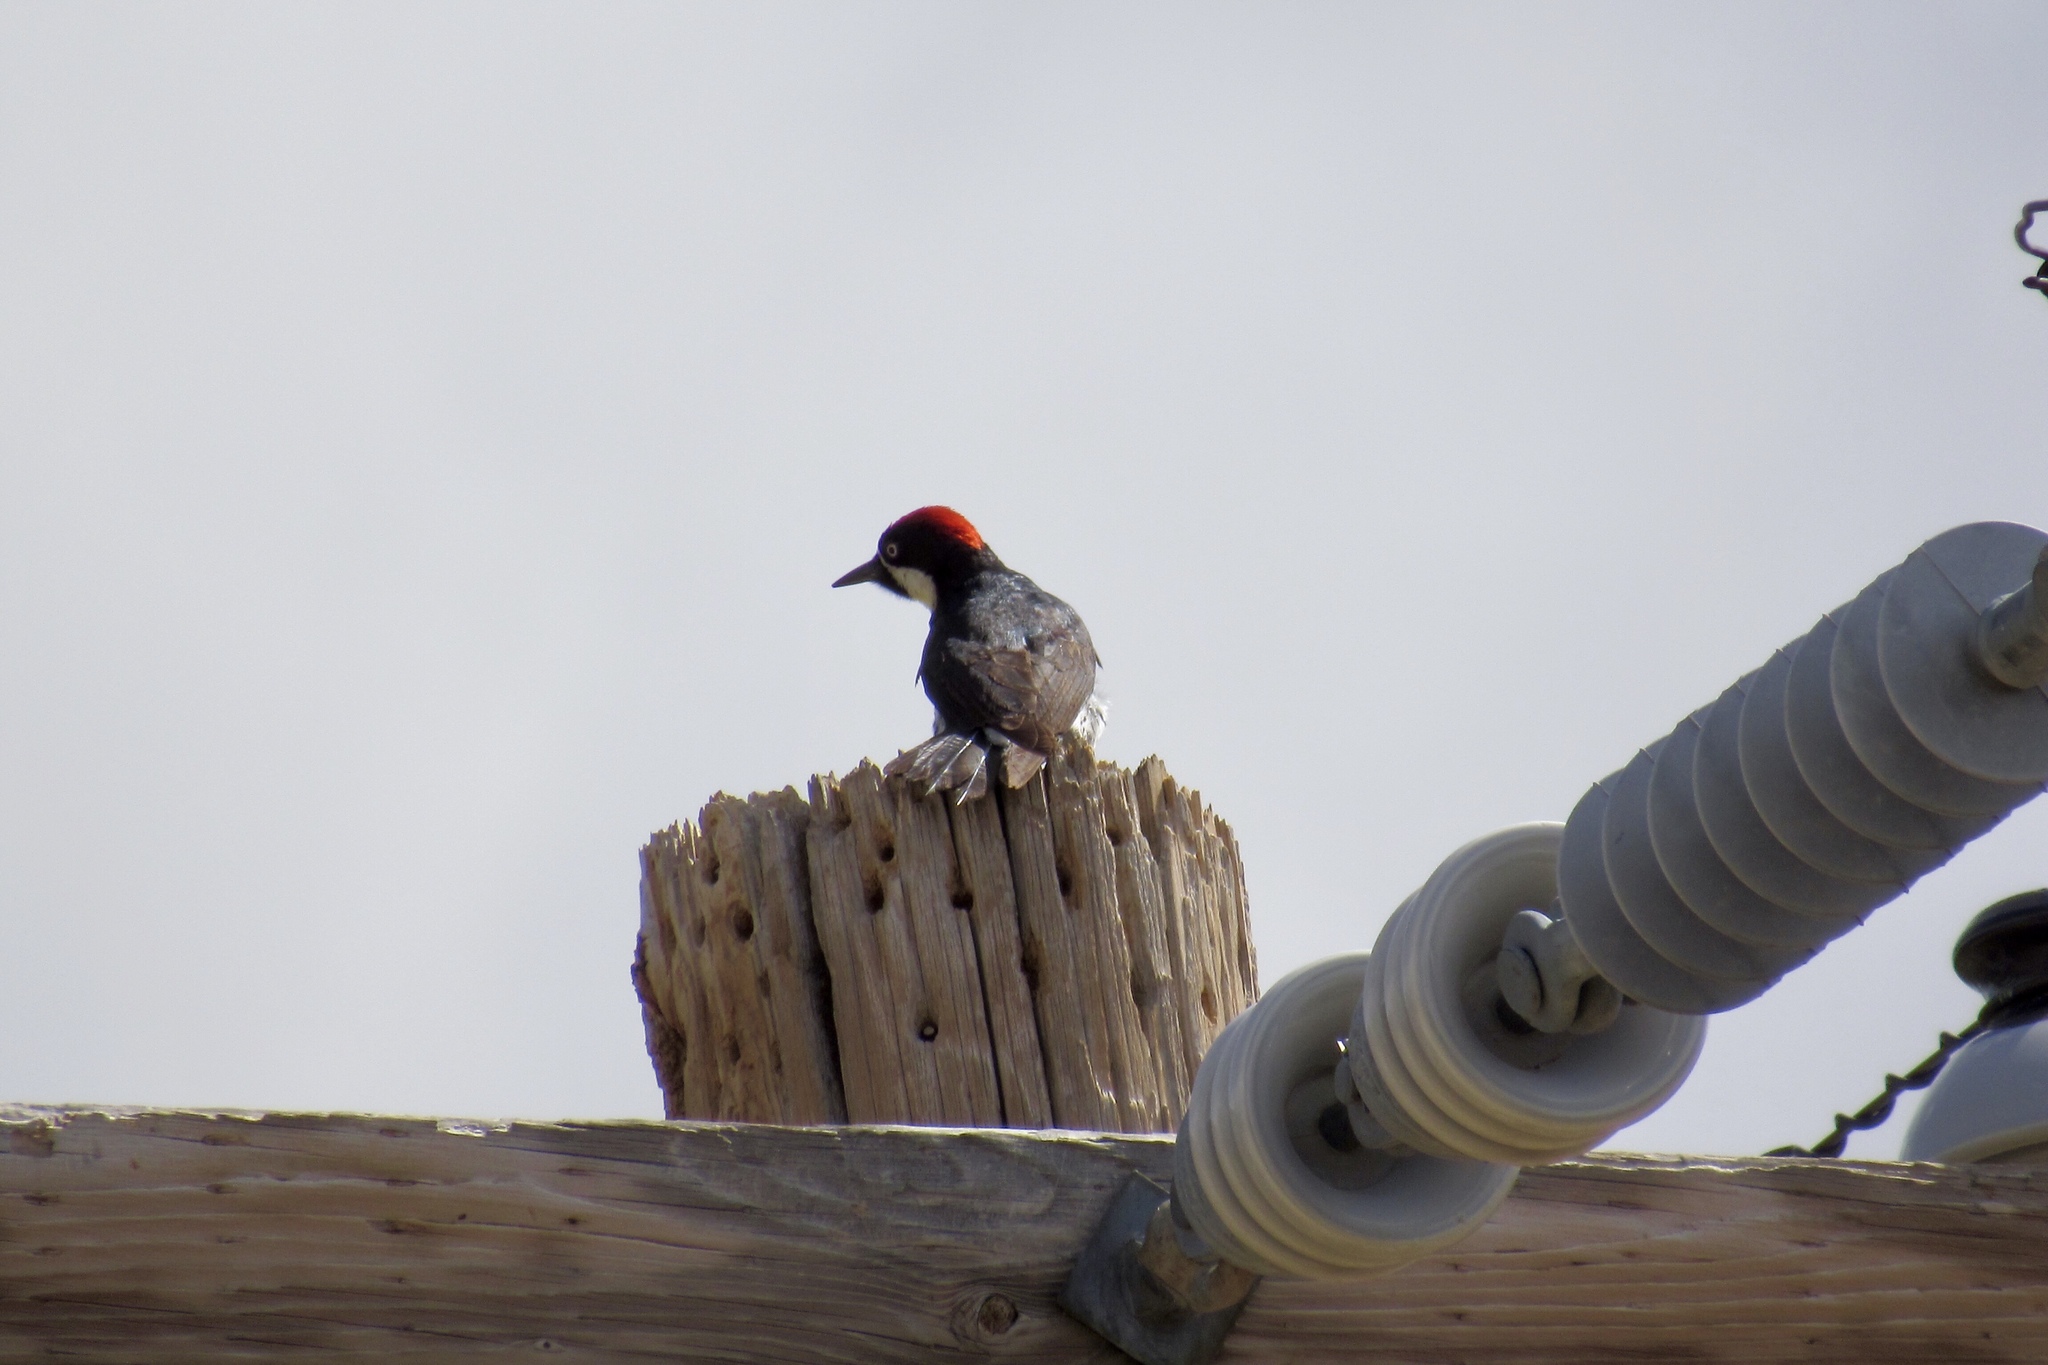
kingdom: Animalia
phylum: Chordata
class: Aves
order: Piciformes
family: Picidae
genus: Melanerpes
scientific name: Melanerpes formicivorus
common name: Acorn woodpecker
